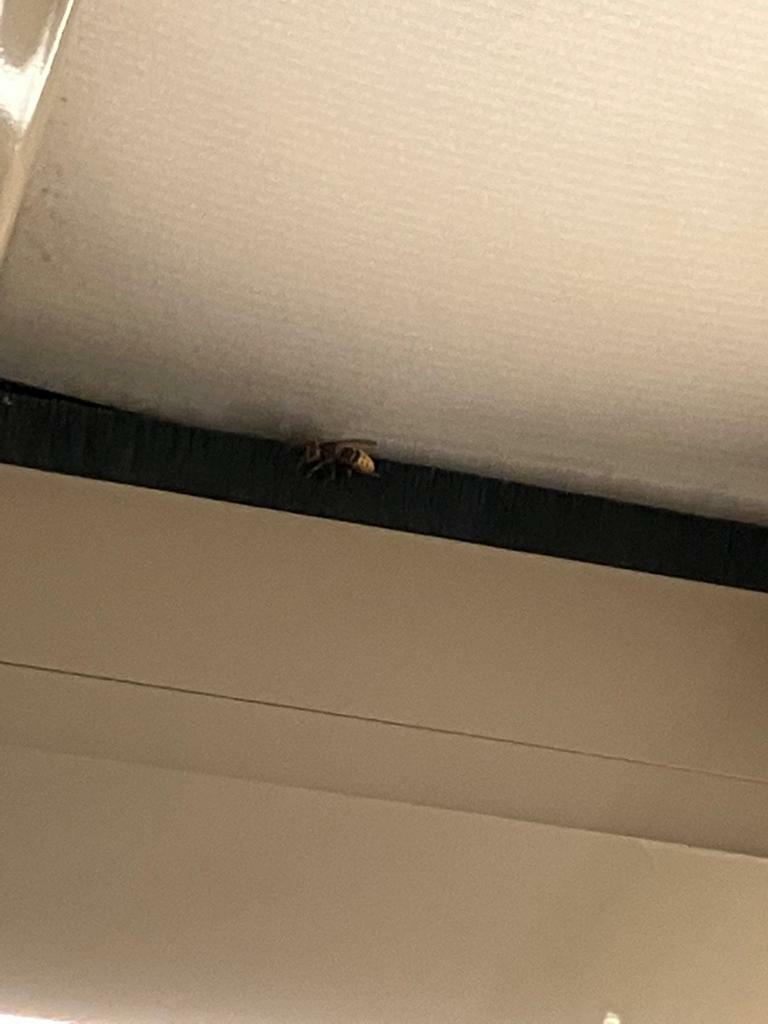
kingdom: Animalia
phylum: Arthropoda
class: Insecta
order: Hymenoptera
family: Vespidae
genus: Vespa
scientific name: Vespa crabro
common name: Hornet
